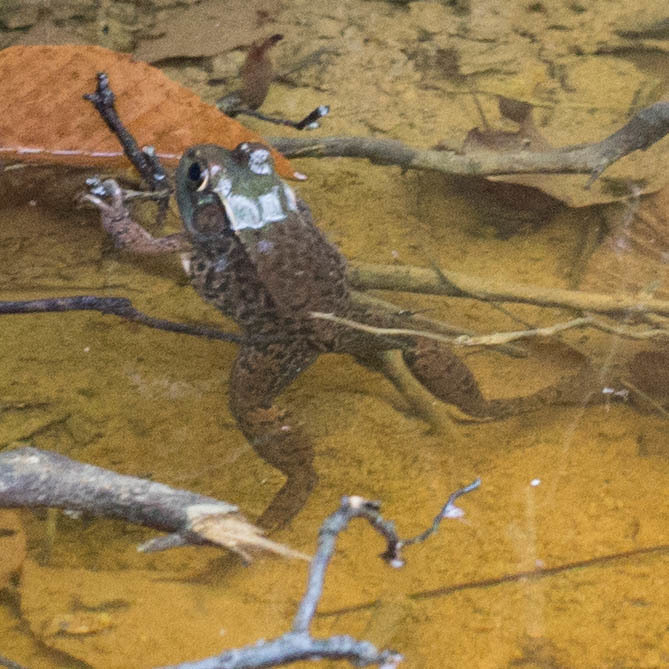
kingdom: Animalia
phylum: Chordata
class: Amphibia
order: Anura
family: Ranidae
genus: Lithobates
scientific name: Lithobates clamitans
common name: Green frog
